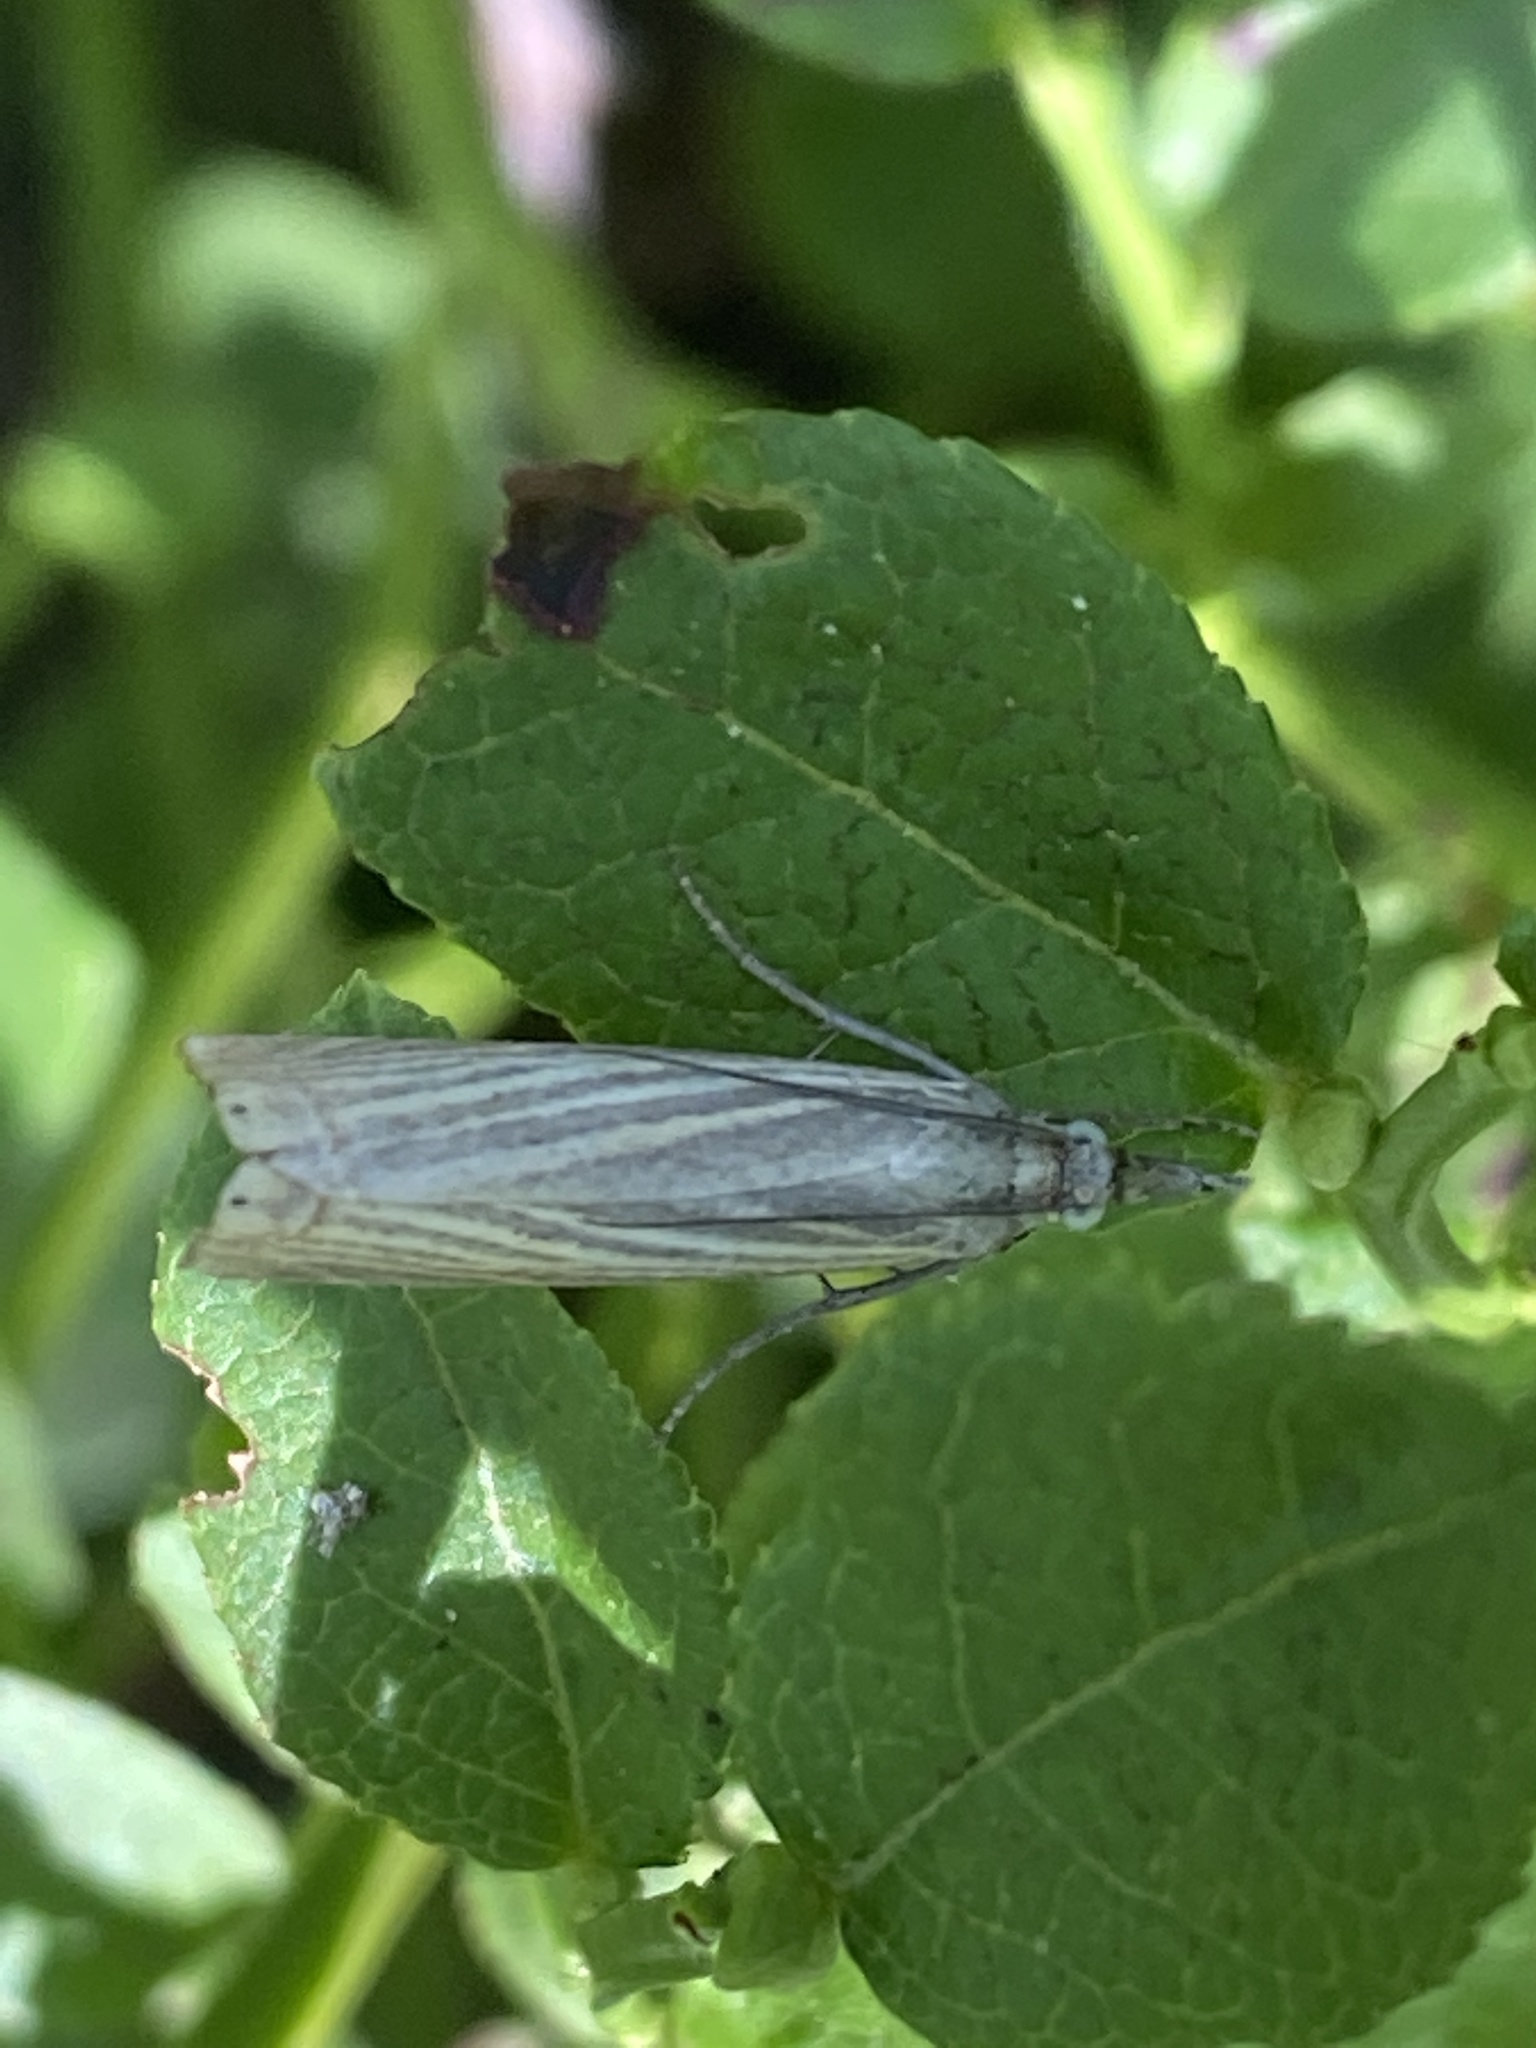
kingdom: Animalia
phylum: Arthropoda
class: Insecta
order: Lepidoptera
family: Crambidae
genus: Chrysoteuchia
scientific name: Chrysoteuchia culmella
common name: Garden grass-veneer
